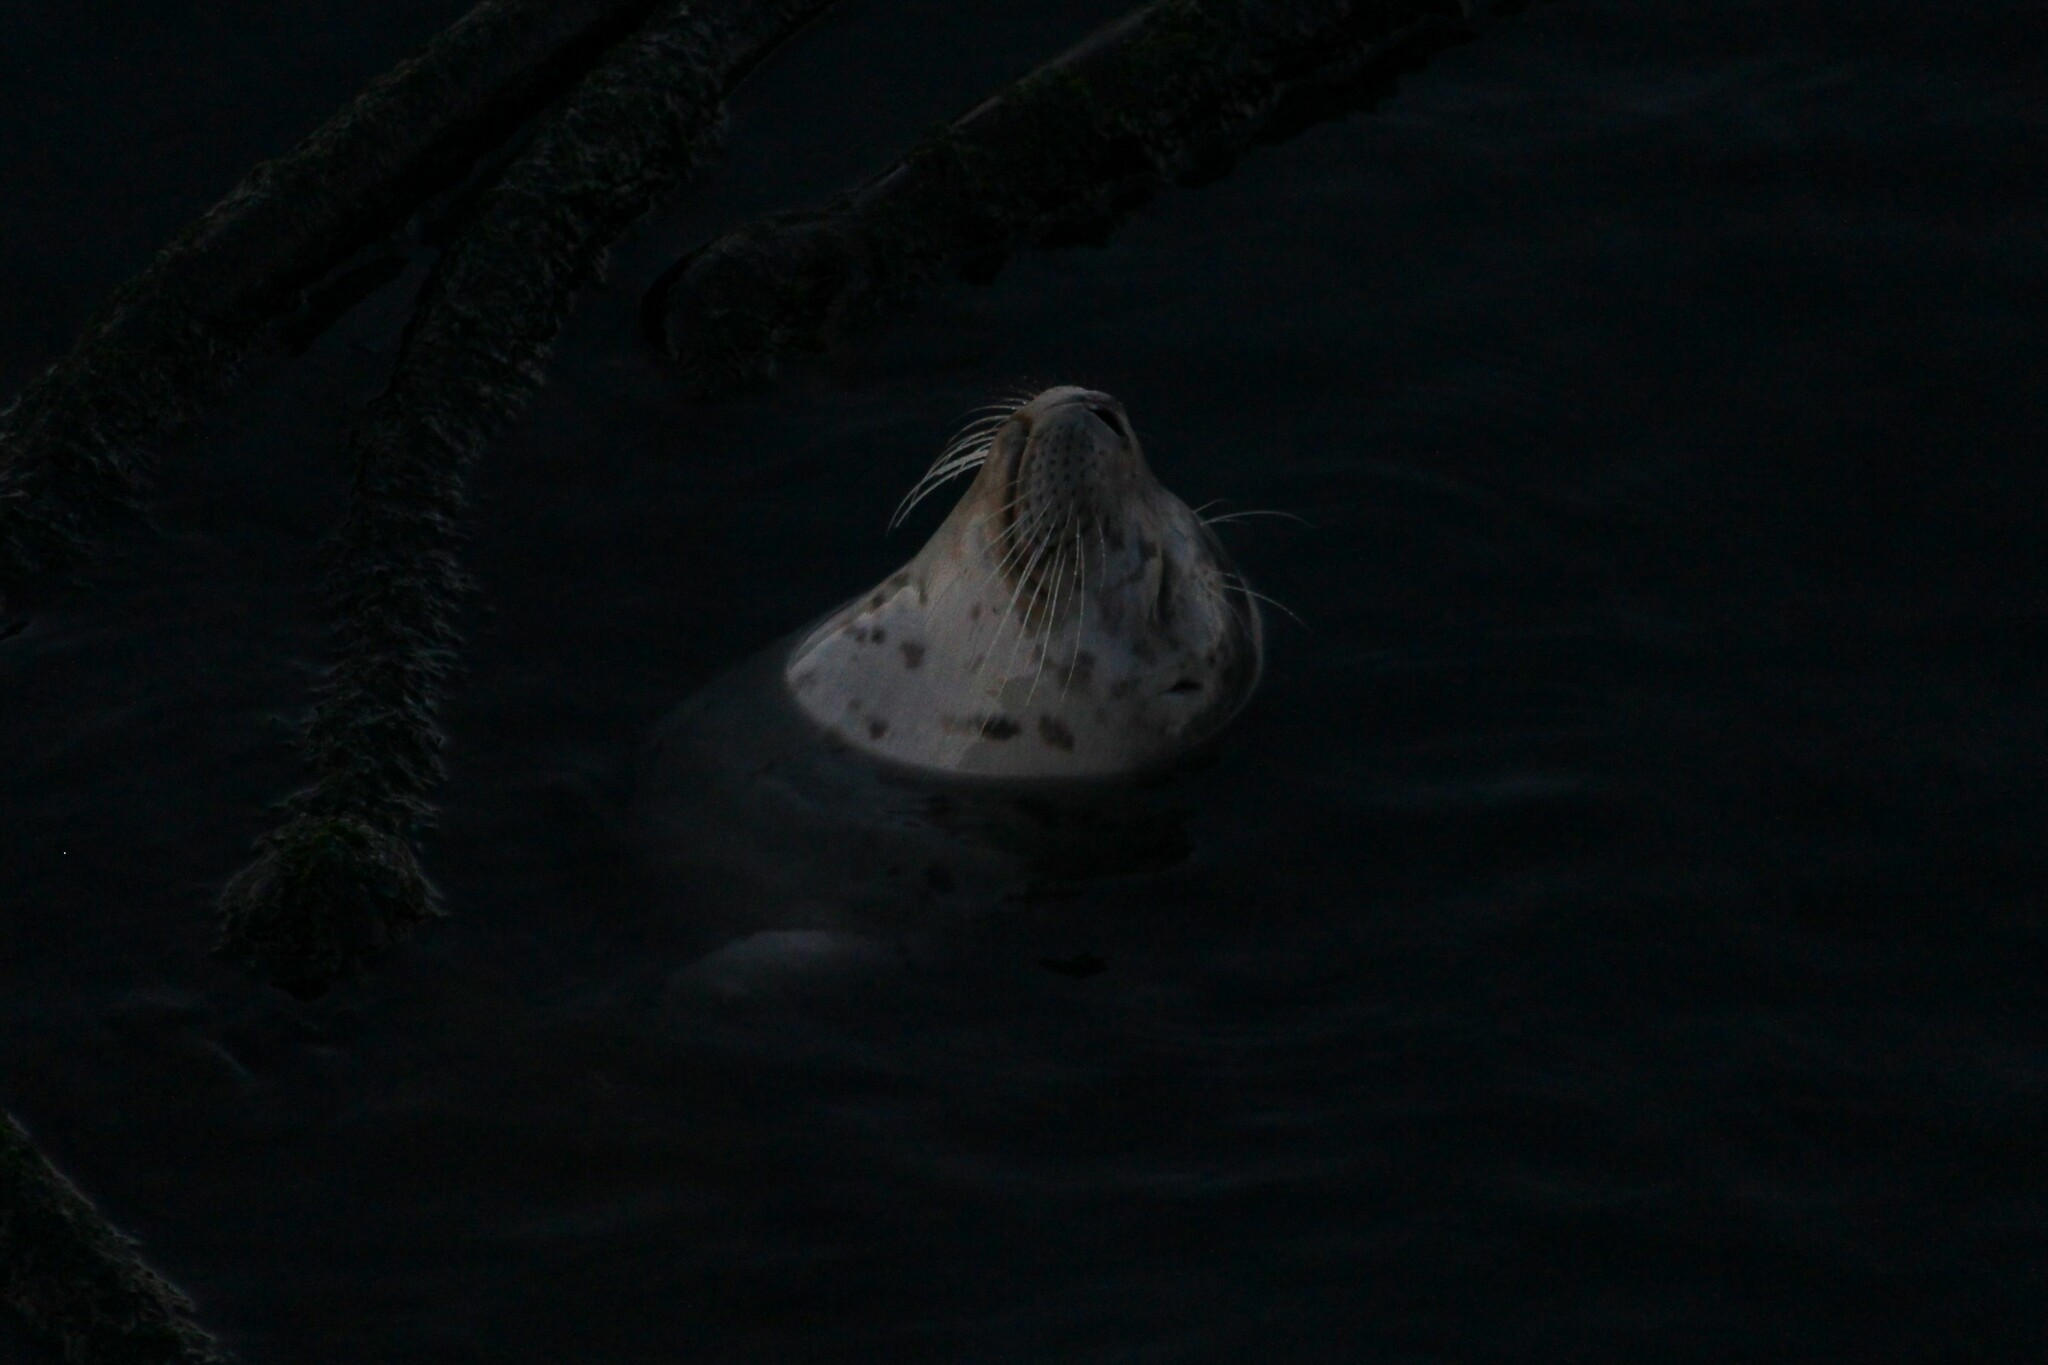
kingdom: Animalia
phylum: Chordata
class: Mammalia
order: Carnivora
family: Phocidae
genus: Phoca
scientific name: Phoca vitulina
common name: Harbor seal
